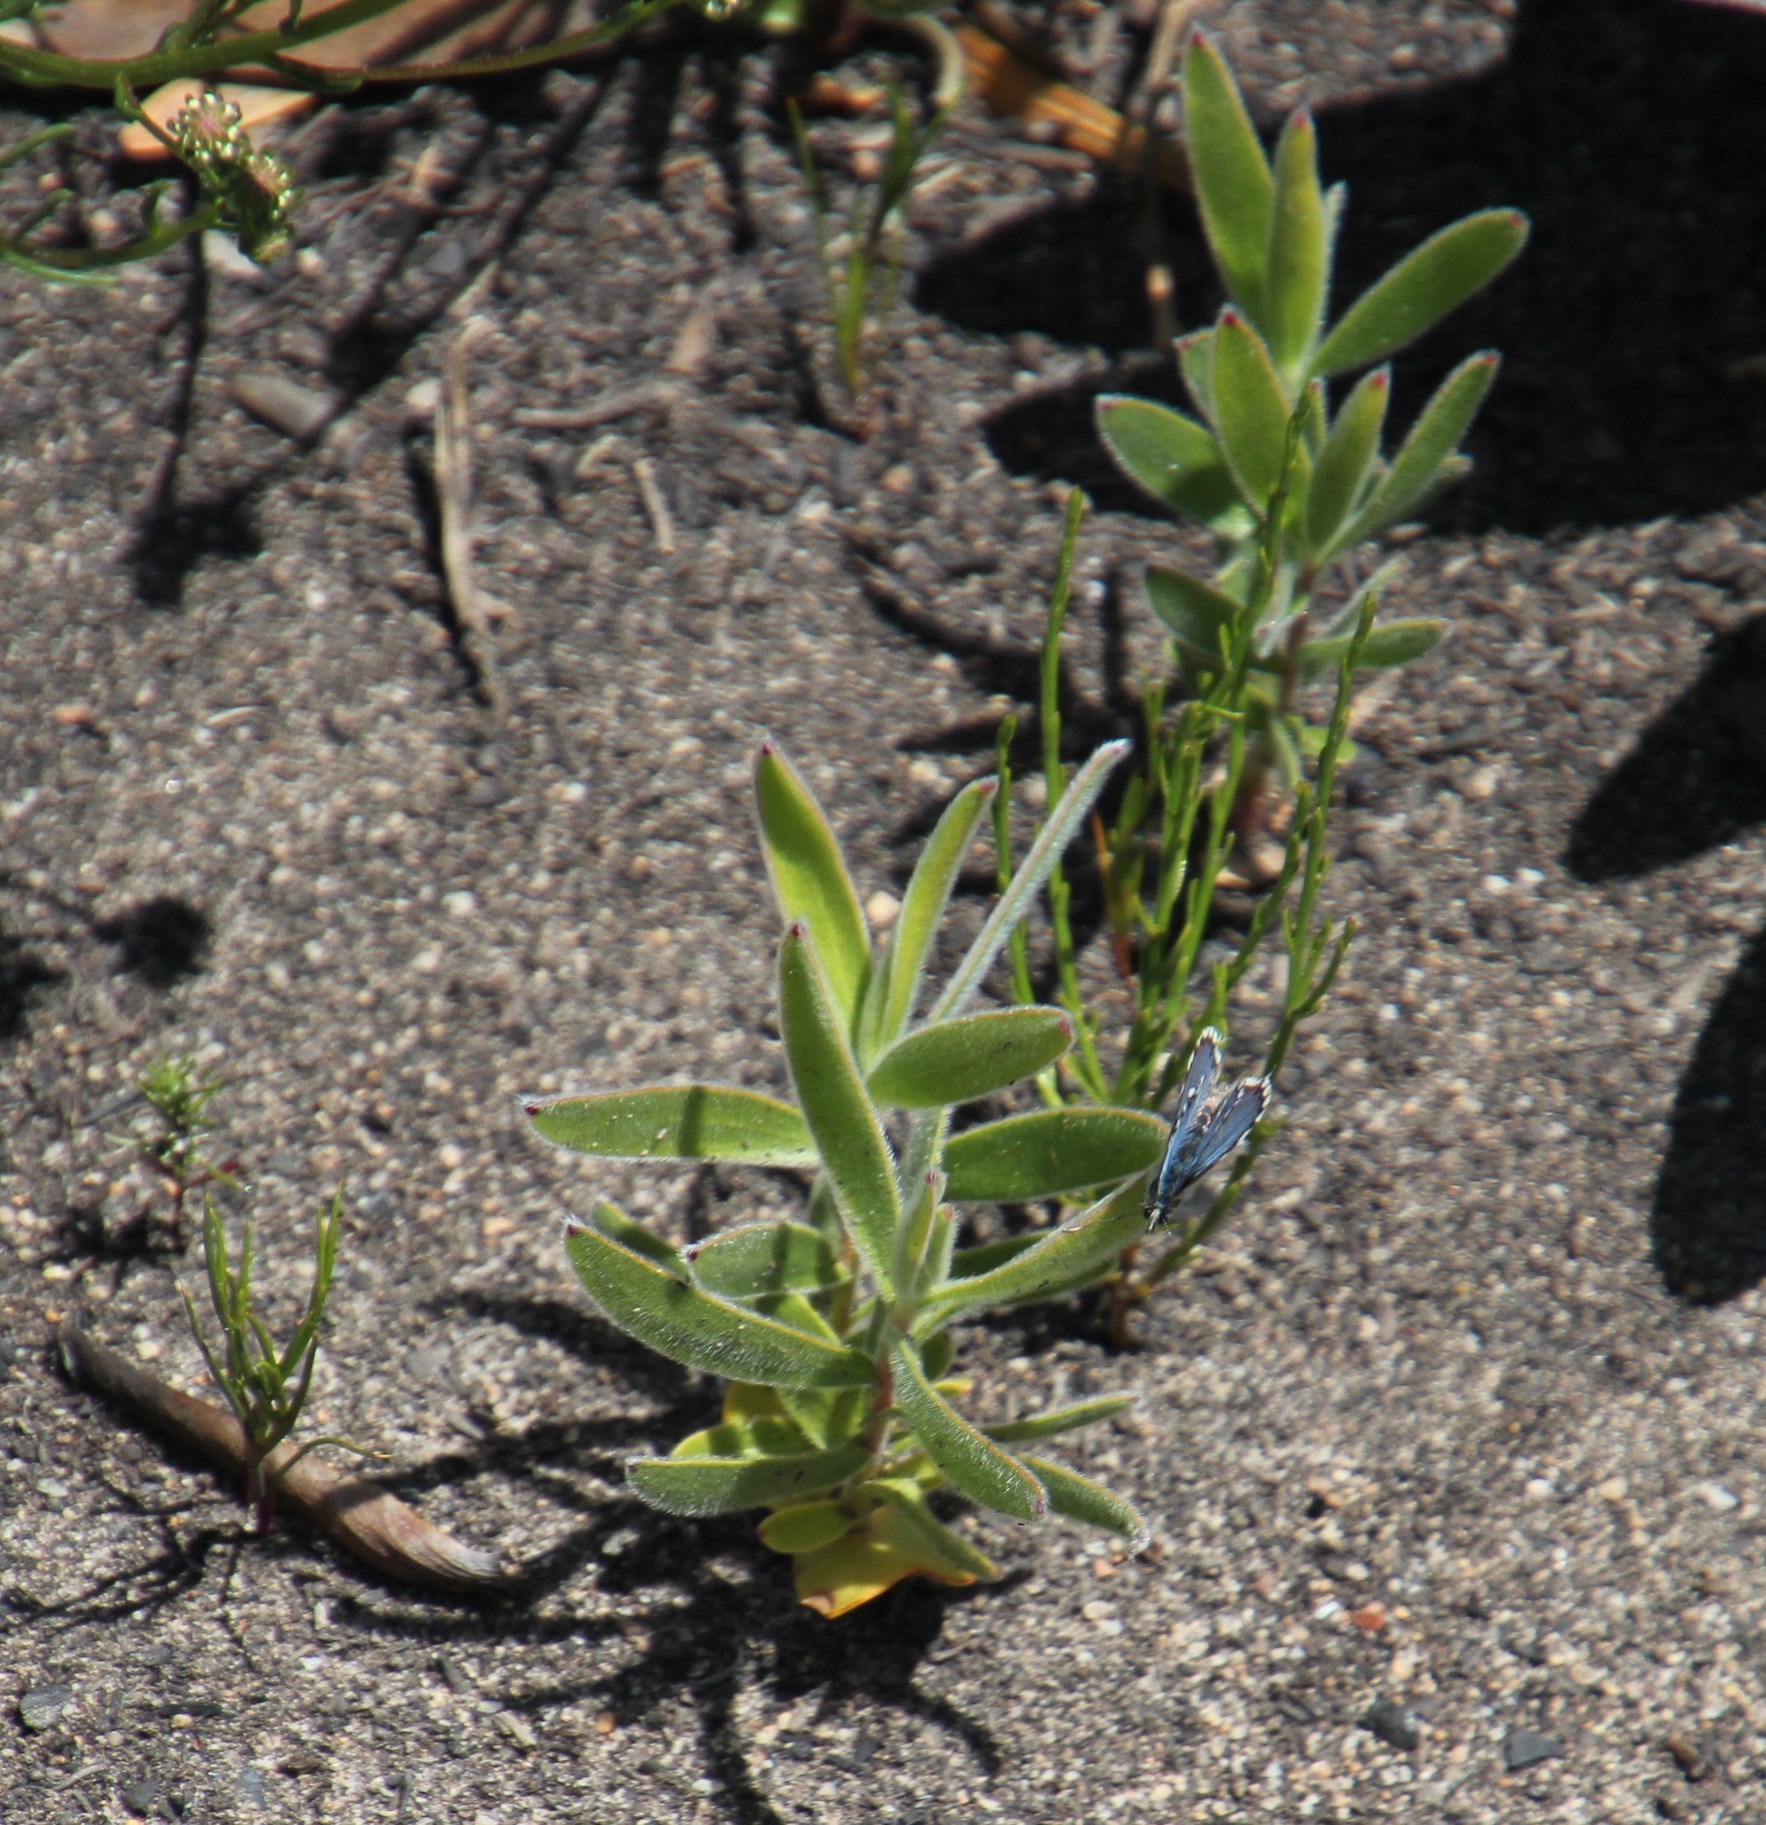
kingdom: Plantae
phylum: Tracheophyta
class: Magnoliopsida
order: Proteales
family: Proteaceae
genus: Leucadendron
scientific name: Leucadendron xanthoconus
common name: Sickle-leaf conebush
